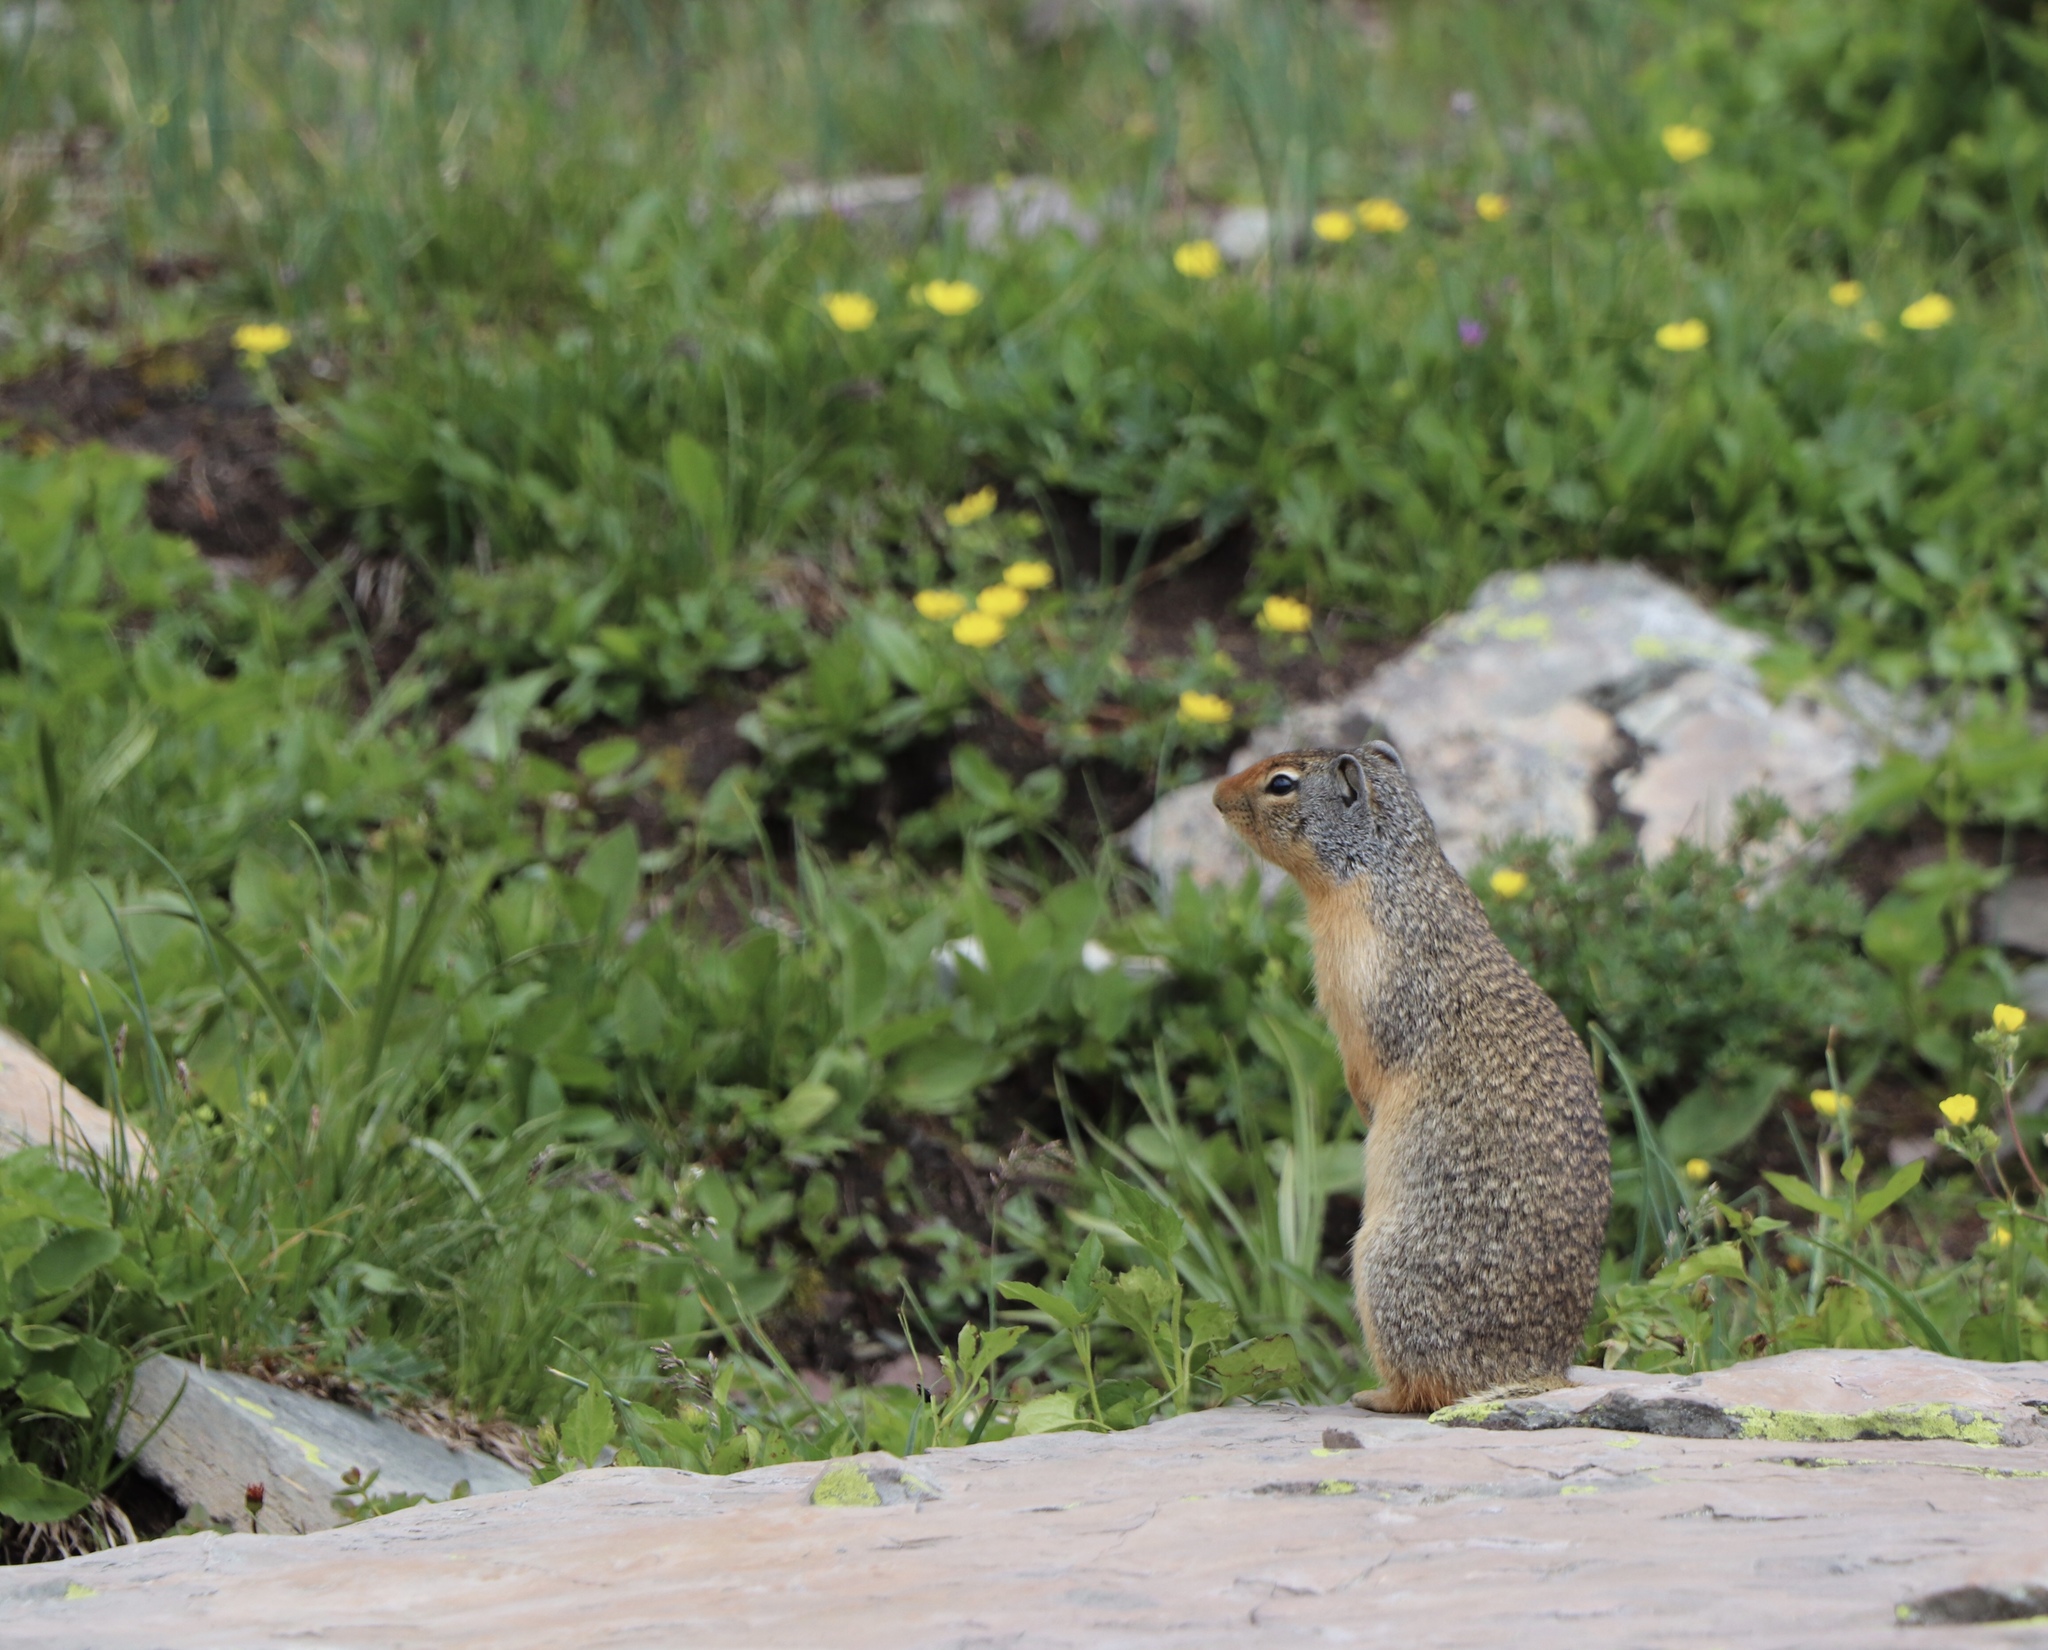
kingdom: Animalia
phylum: Chordata
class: Mammalia
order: Rodentia
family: Sciuridae
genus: Urocitellus
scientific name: Urocitellus columbianus
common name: Columbian ground squirrel
